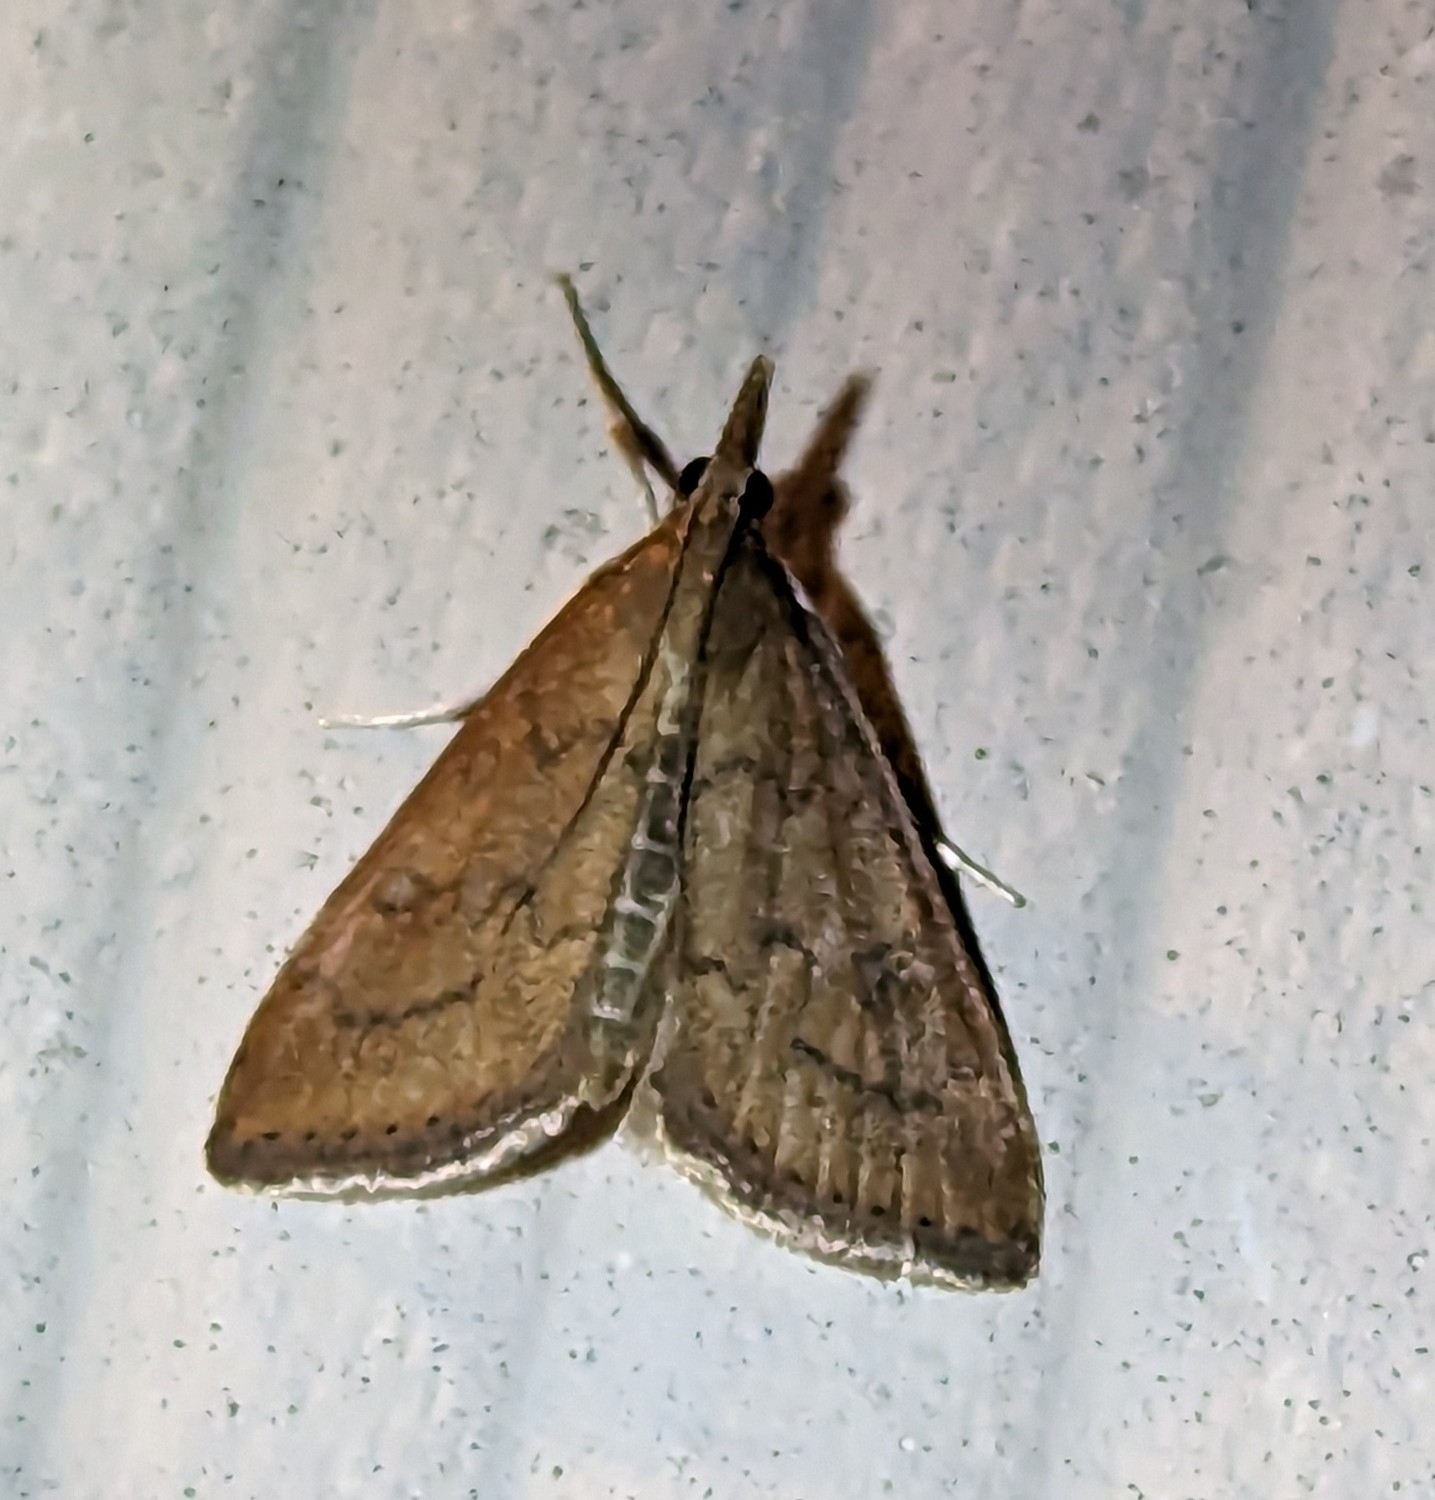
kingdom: Animalia
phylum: Arthropoda
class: Insecta
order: Lepidoptera
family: Crambidae
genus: Udea
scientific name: Udea rubigalis
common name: Celery leaftier moth
